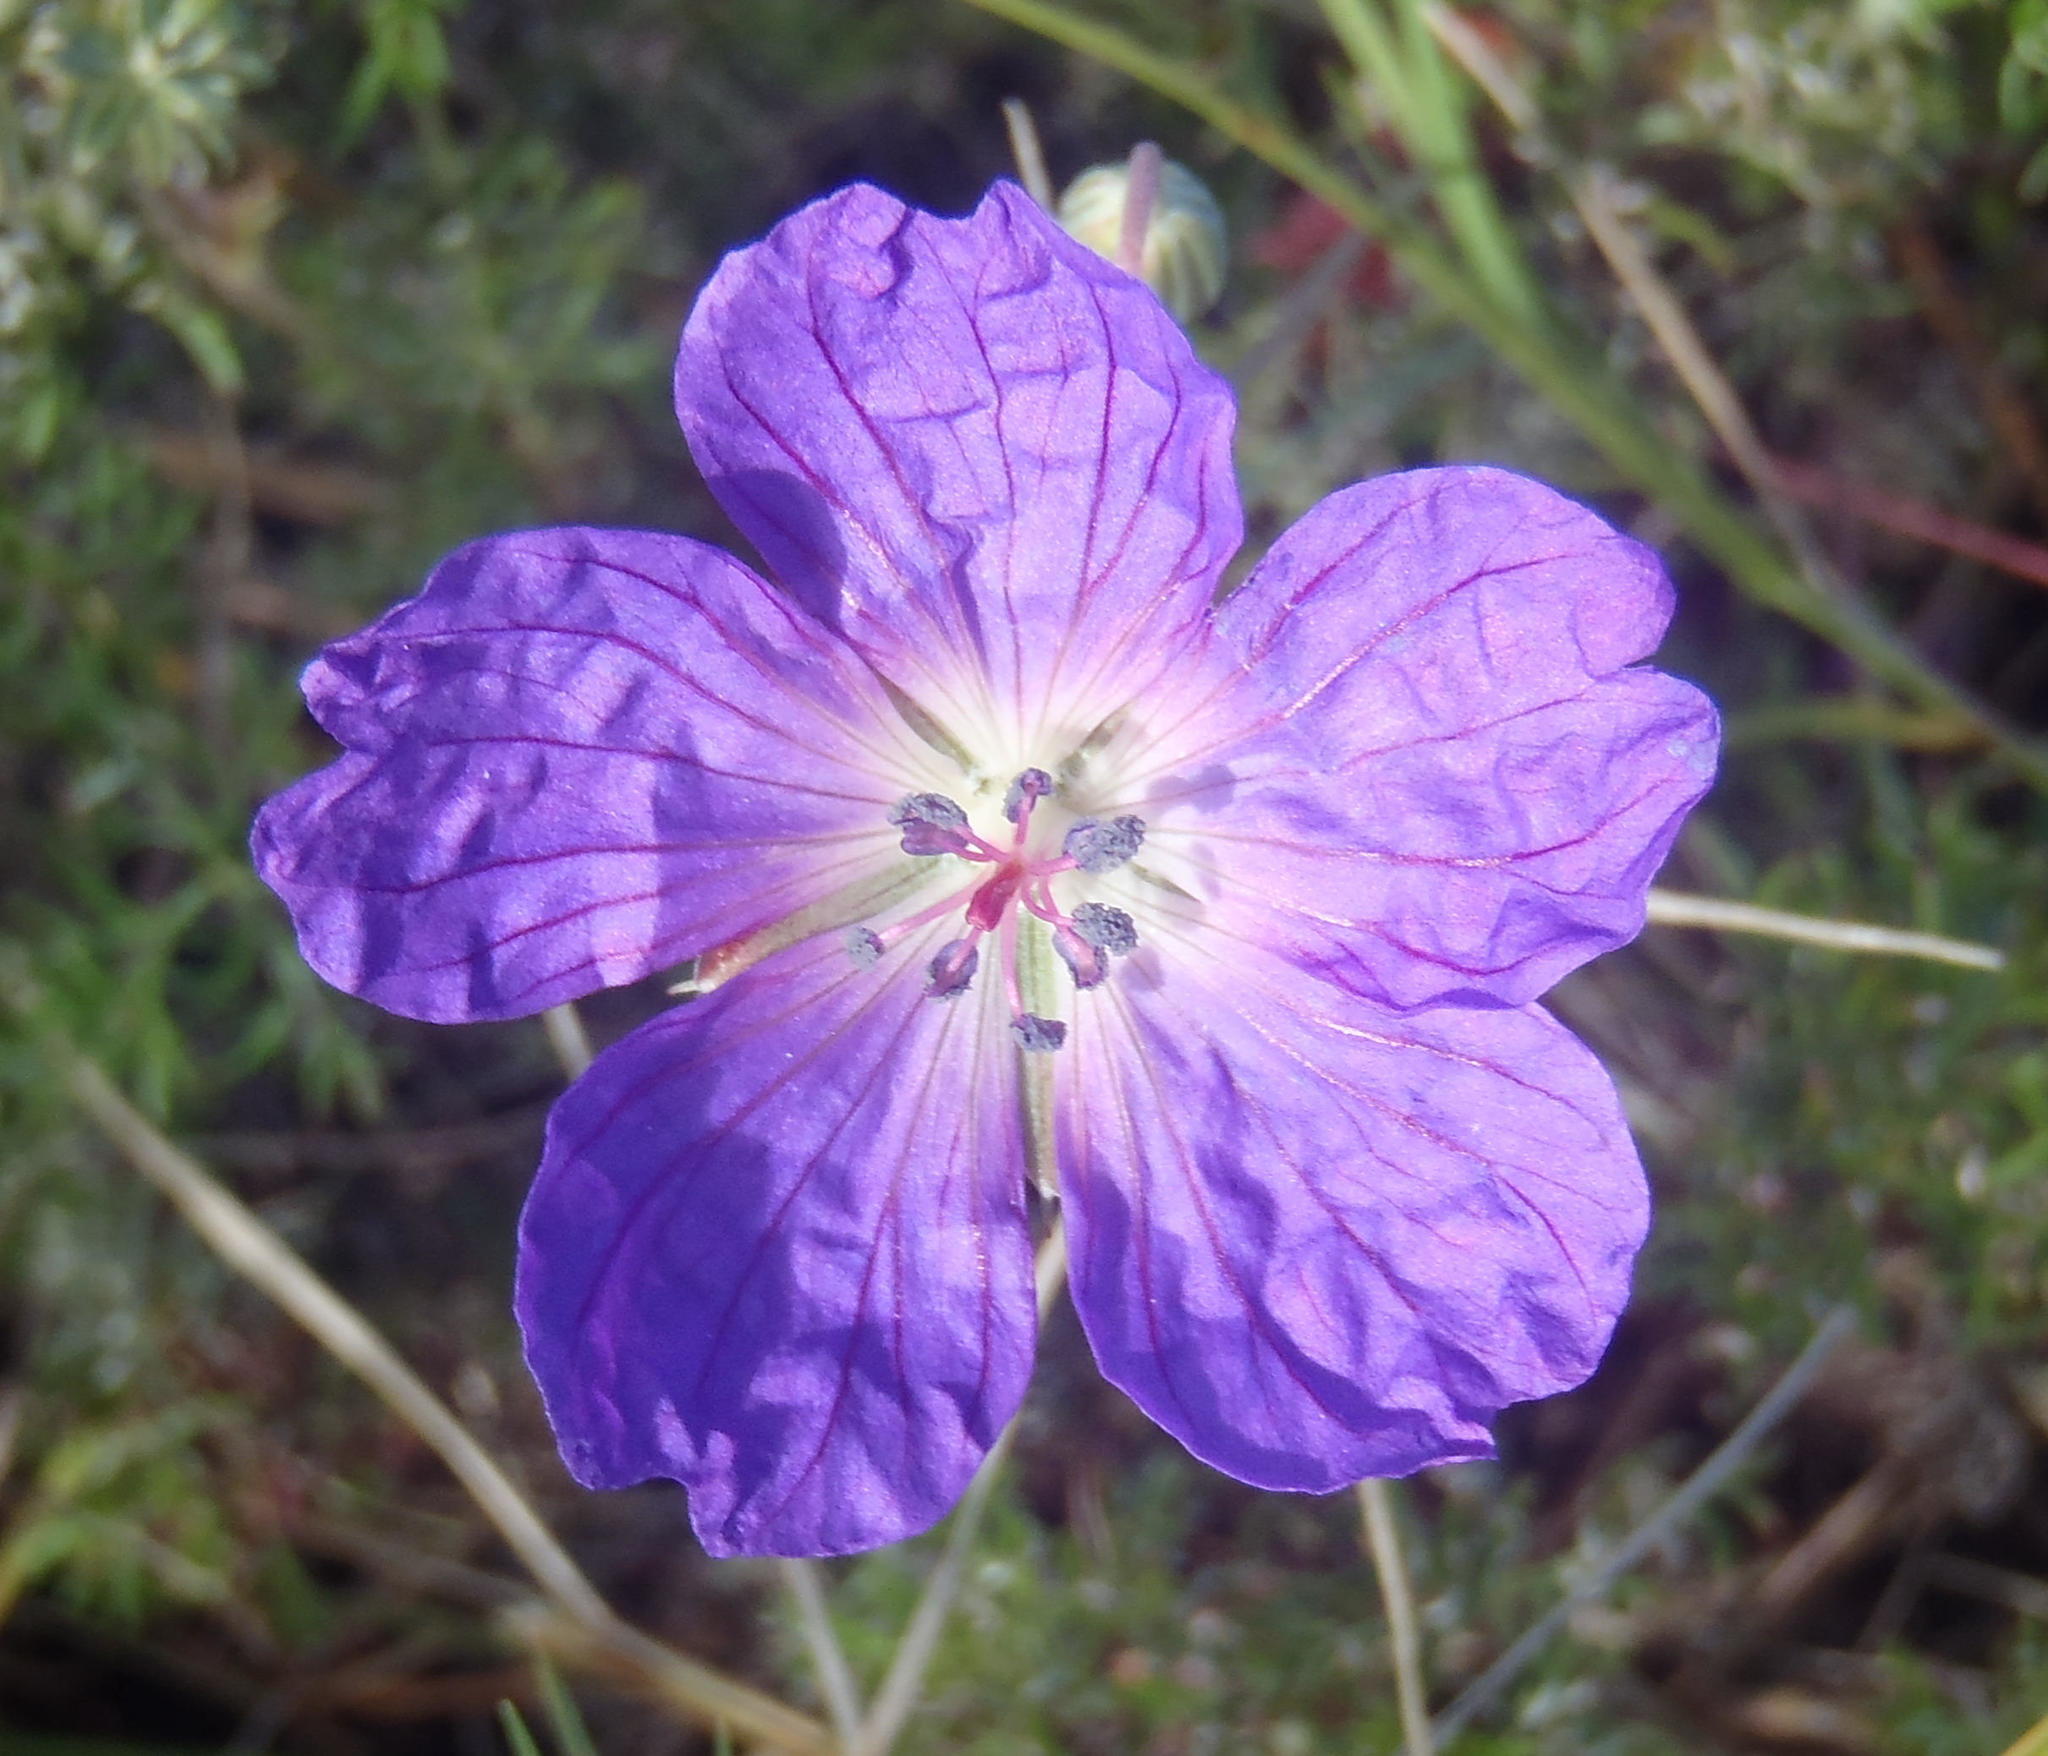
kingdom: Plantae
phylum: Tracheophyta
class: Magnoliopsida
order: Geraniales
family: Geraniaceae
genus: Geranium
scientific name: Geranium incanum
